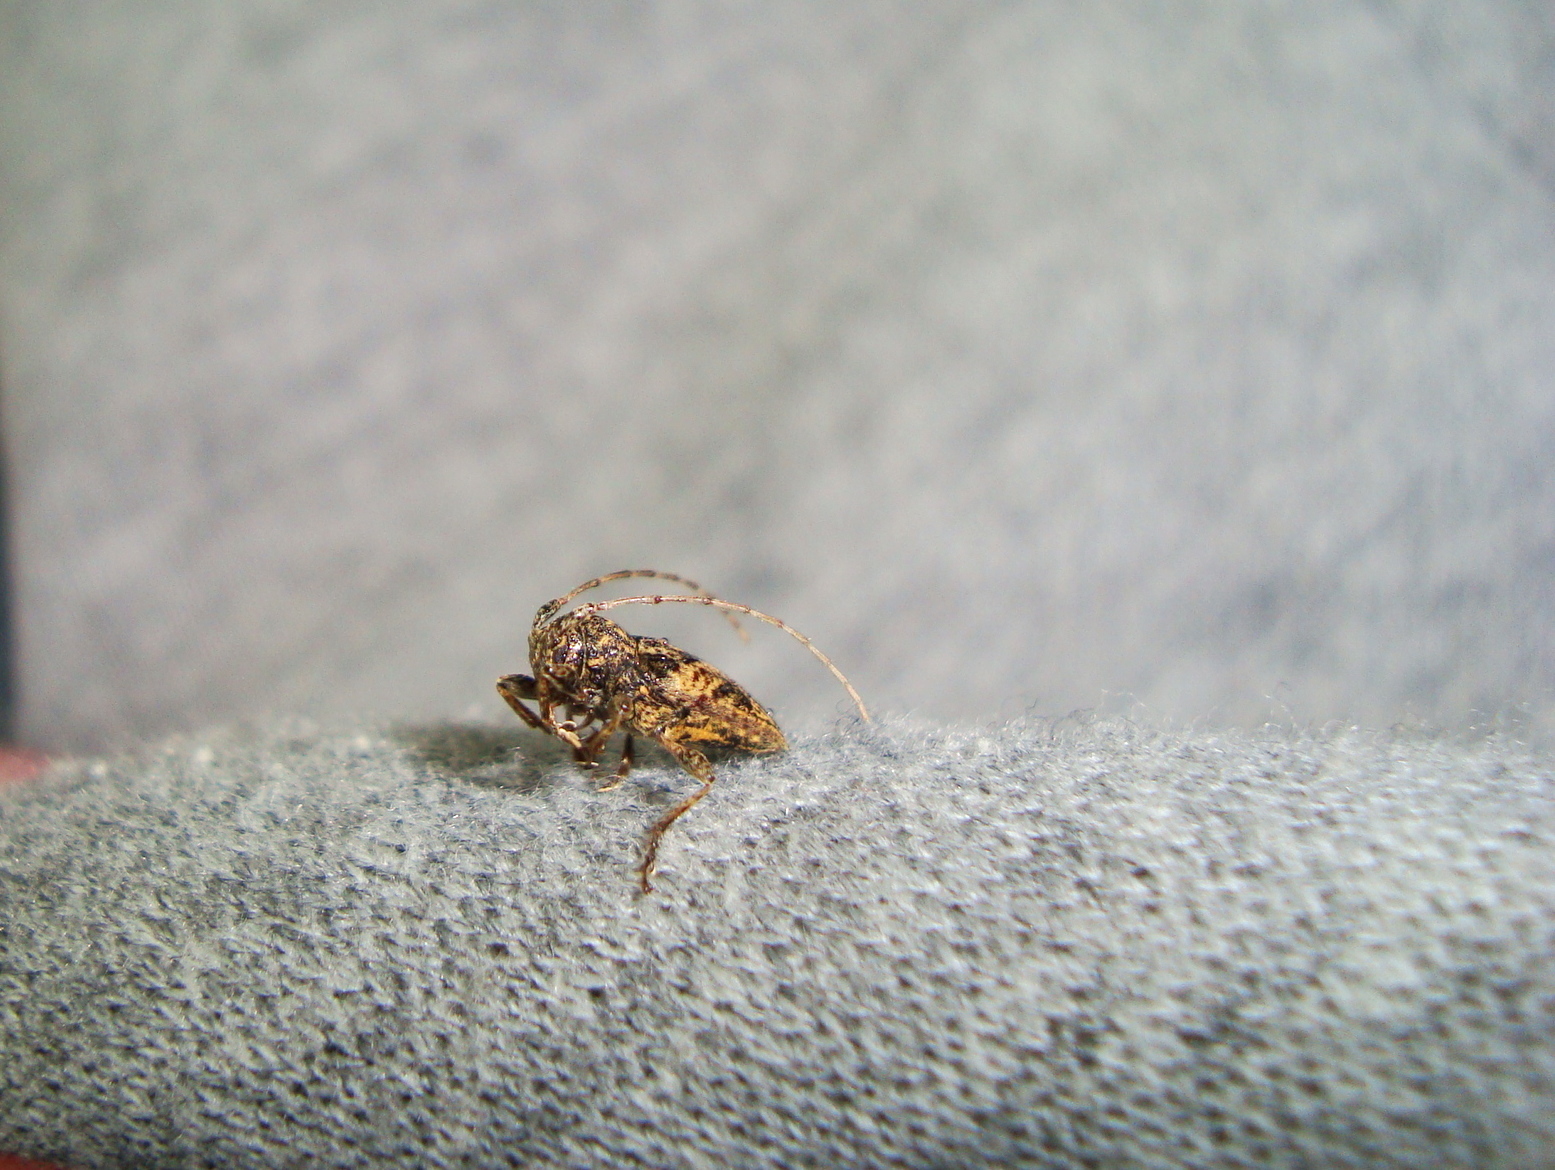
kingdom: Animalia
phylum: Arthropoda
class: Insecta
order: Coleoptera
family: Cerambycidae
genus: Aconopteroides
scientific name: Aconopteroides laevipennis
